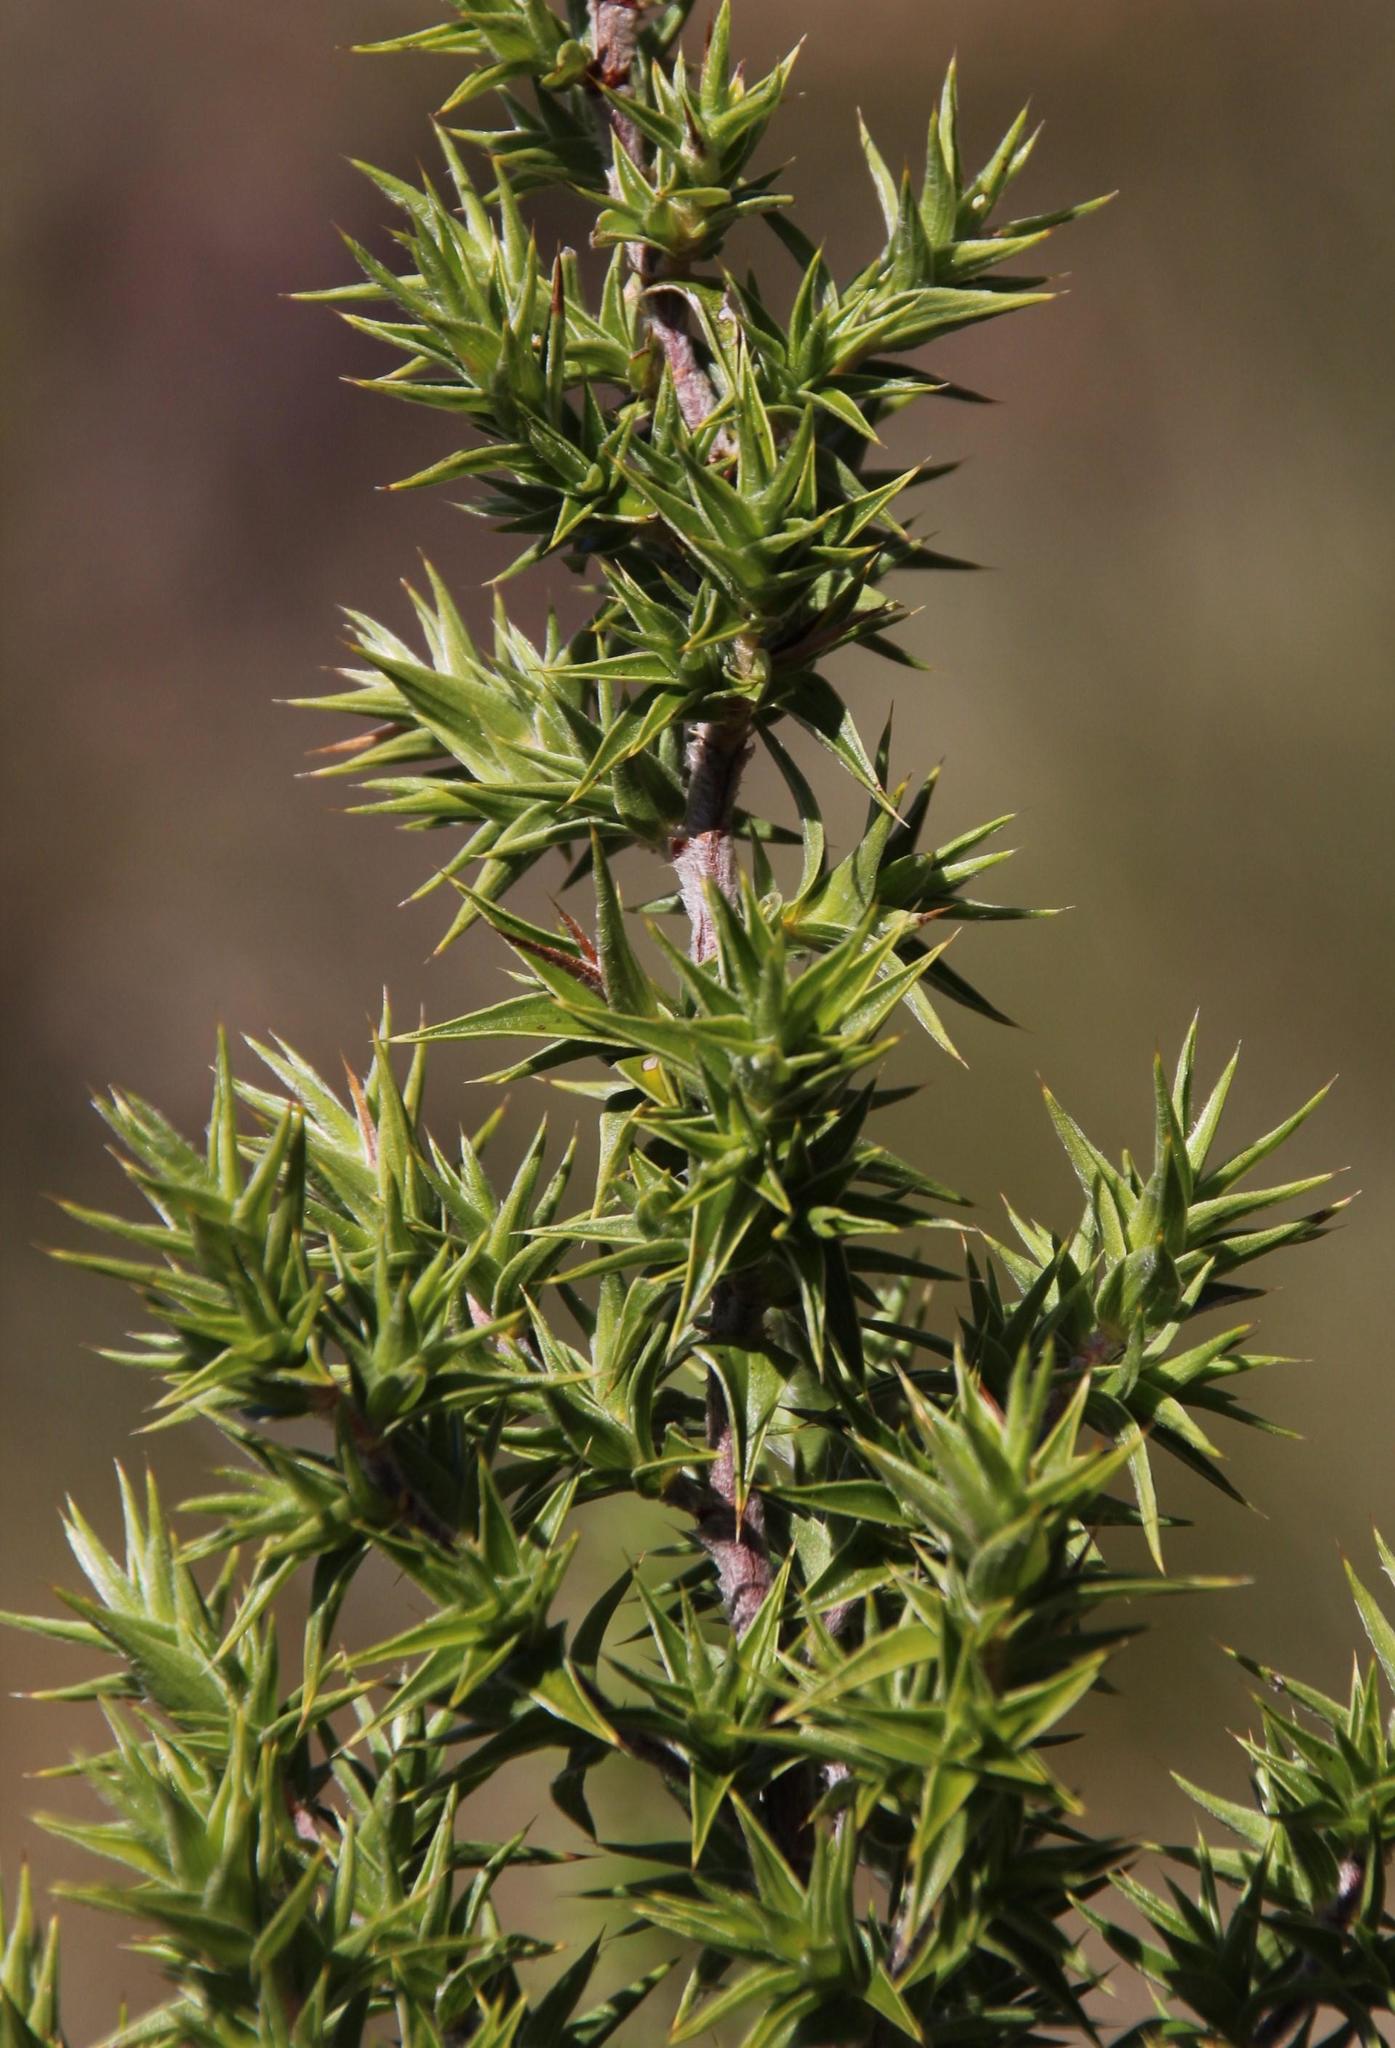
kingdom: Plantae
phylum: Tracheophyta
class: Magnoliopsida
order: Rosales
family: Rosaceae
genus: Cliffortia
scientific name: Cliffortia ruscifolia
